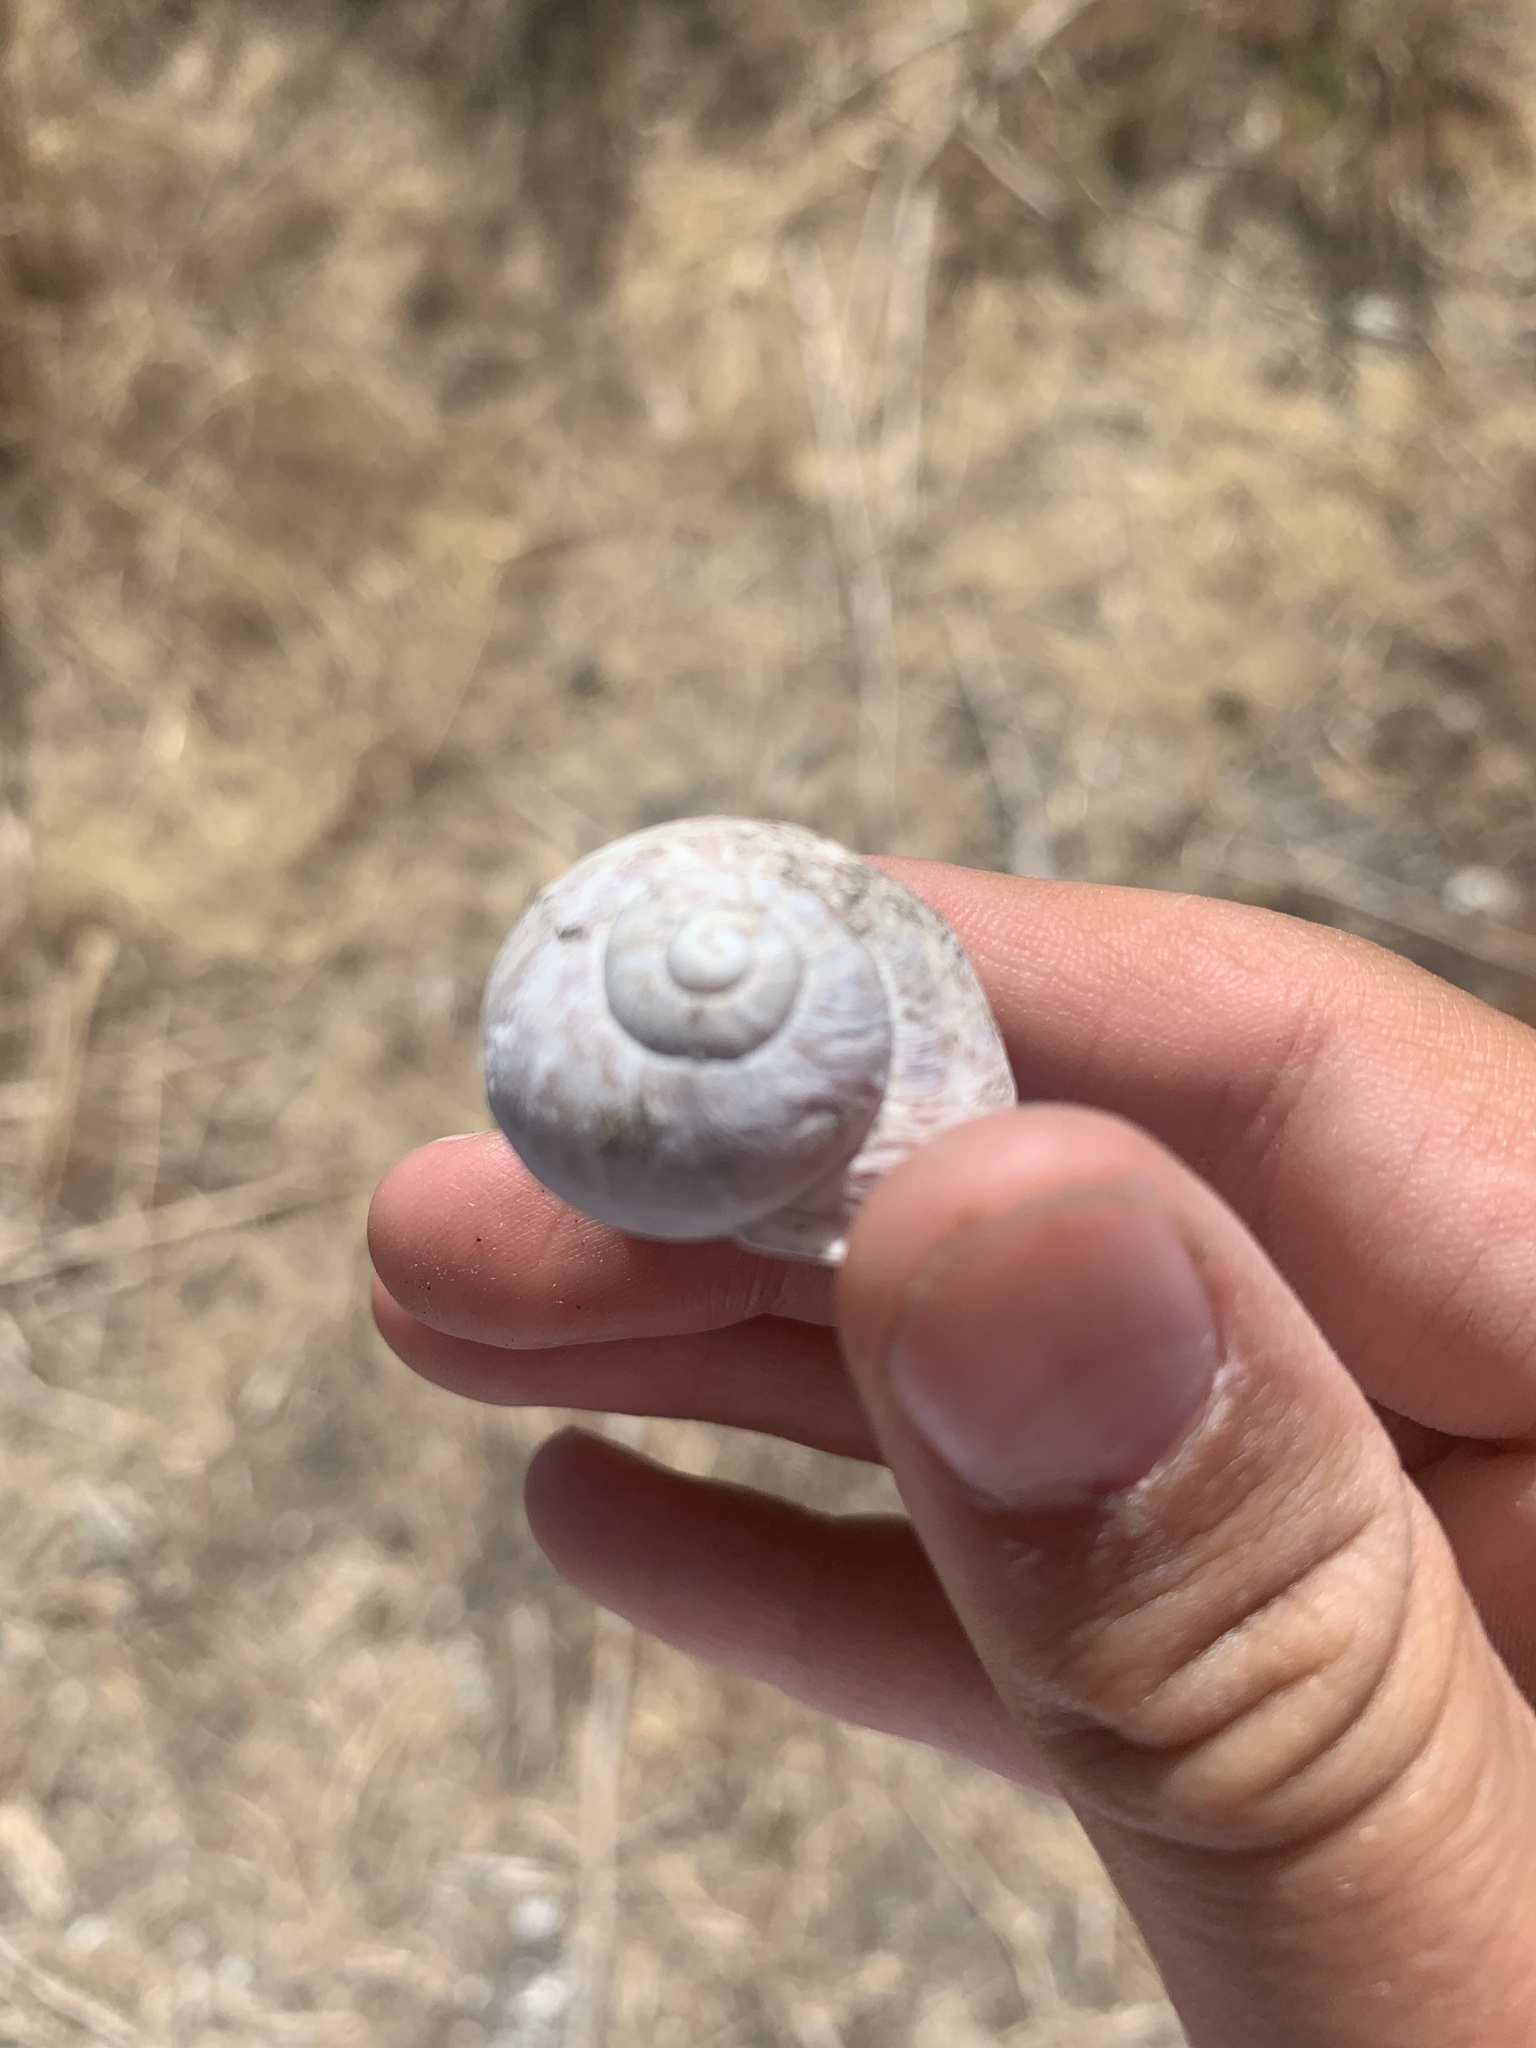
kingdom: Animalia
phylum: Mollusca
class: Gastropoda
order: Stylommatophora
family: Helicidae
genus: Cornu
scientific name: Cornu aspersum
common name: Brown garden snail
